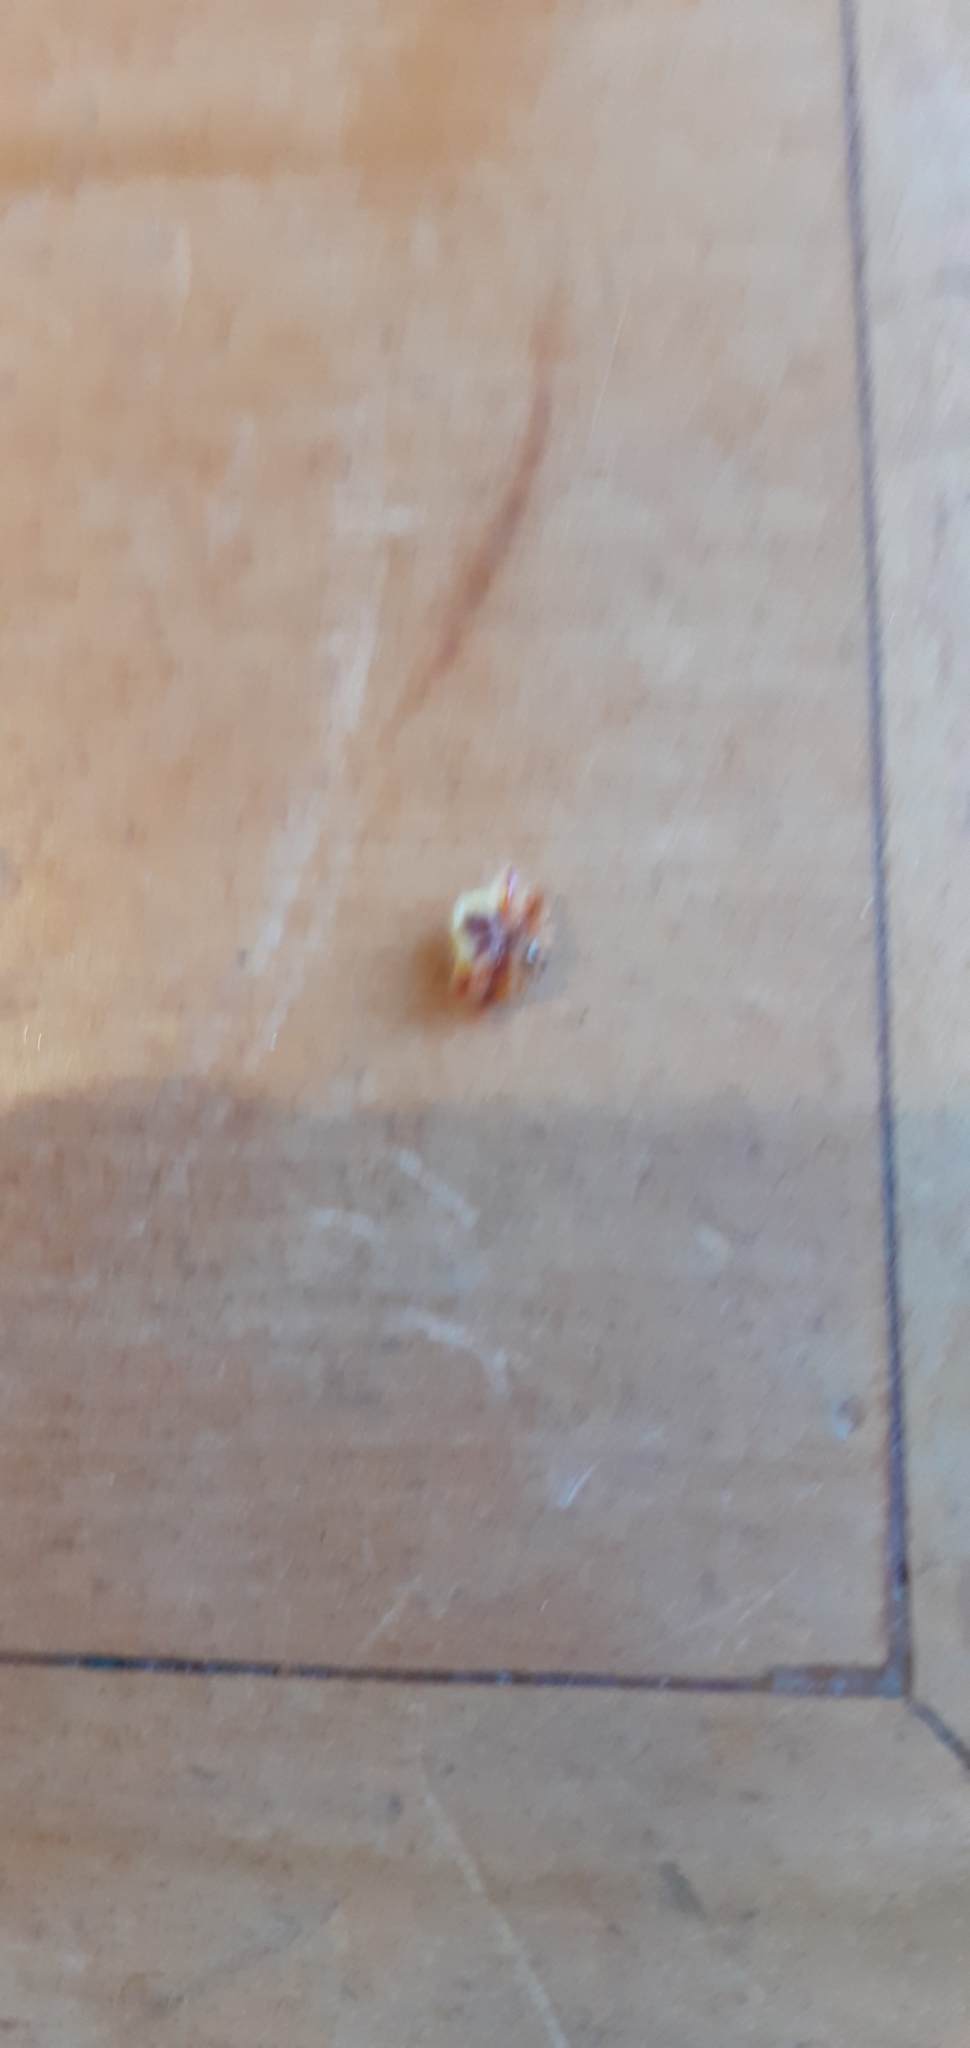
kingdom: Animalia
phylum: Arthropoda
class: Arachnida
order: Araneae
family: Araneidae
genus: Poecilopachys
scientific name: Poecilopachys australasia
